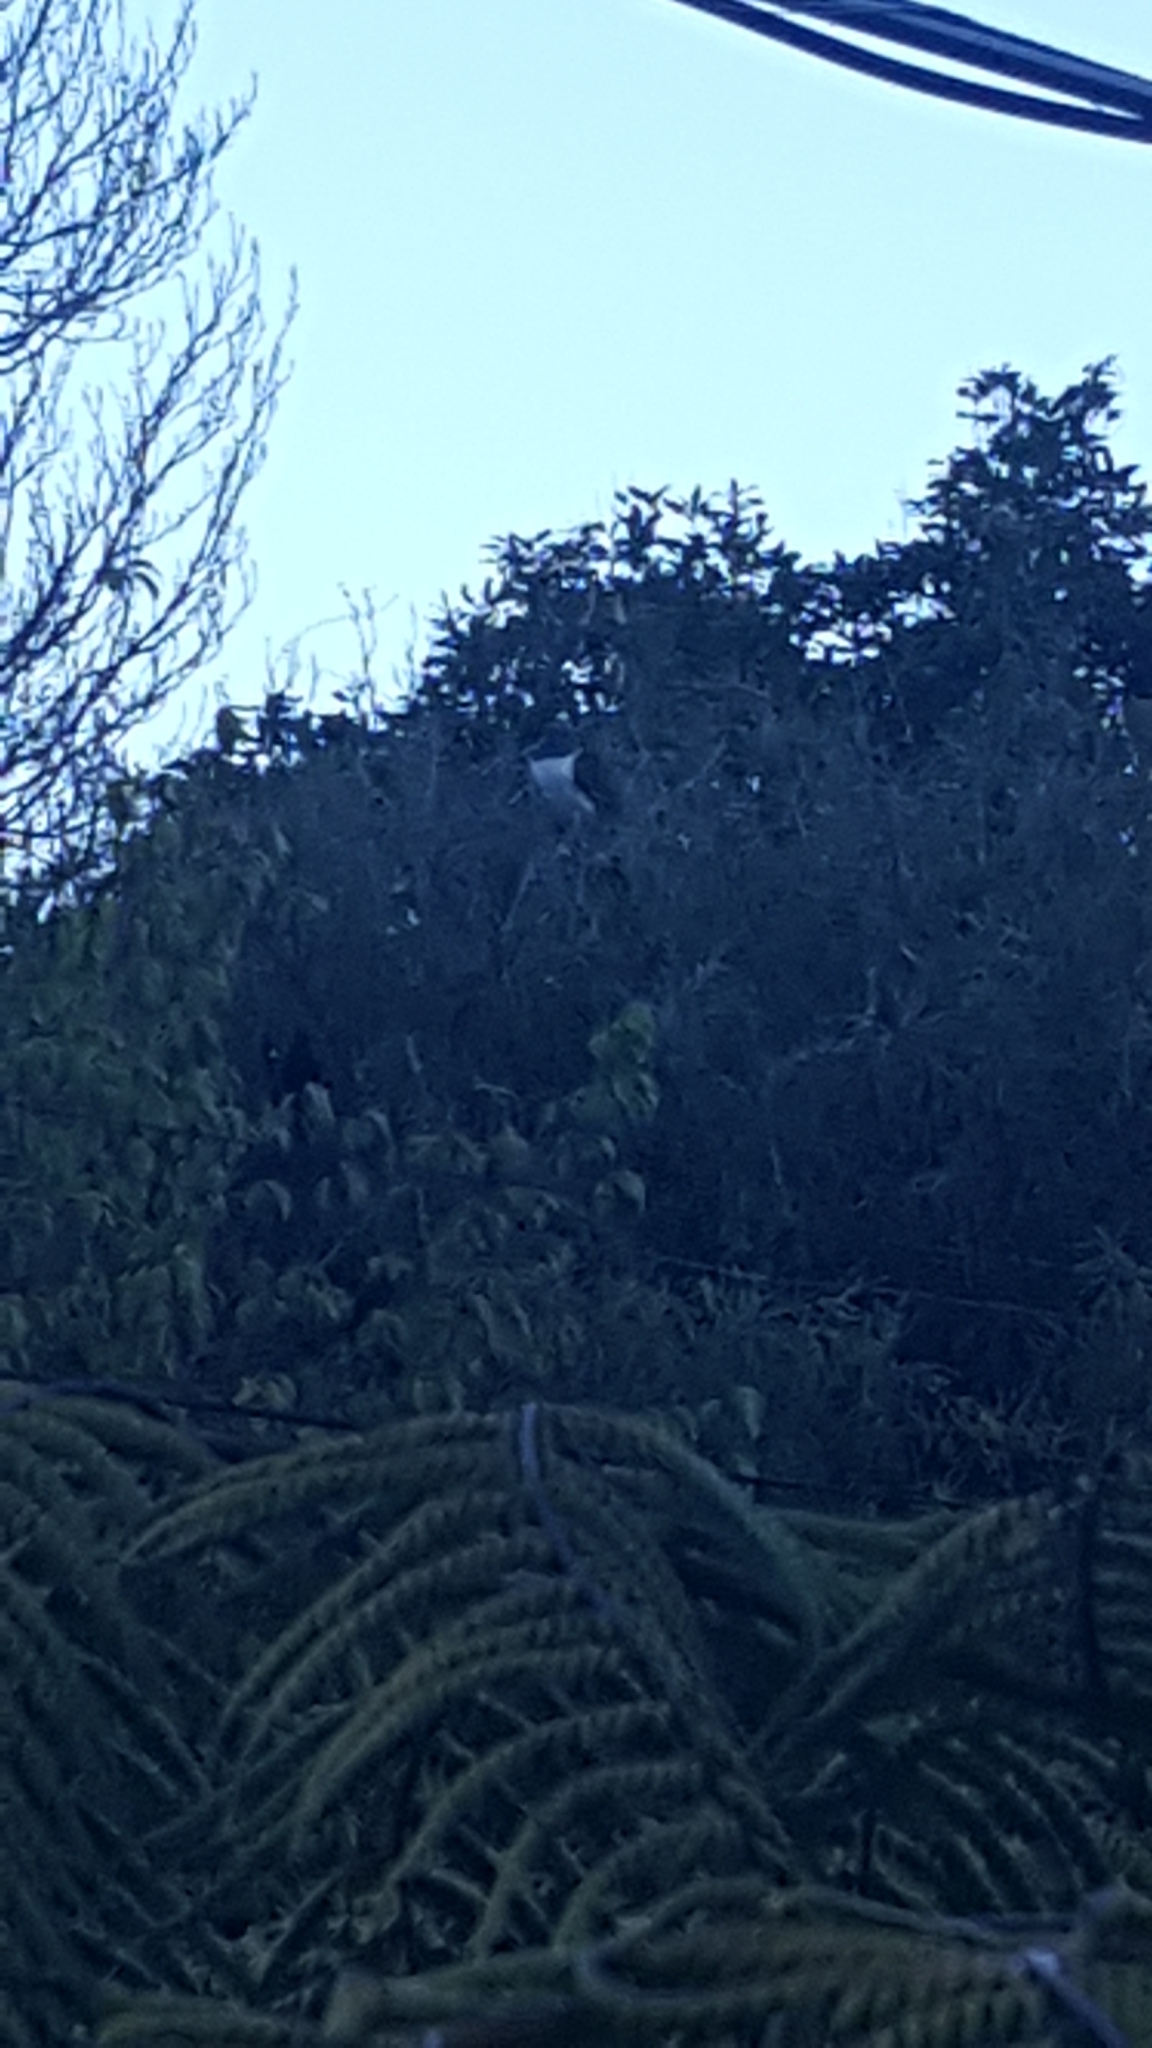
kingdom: Animalia
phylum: Chordata
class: Aves
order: Columbiformes
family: Columbidae
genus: Hemiphaga
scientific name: Hemiphaga novaeseelandiae
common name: New zealand pigeon
